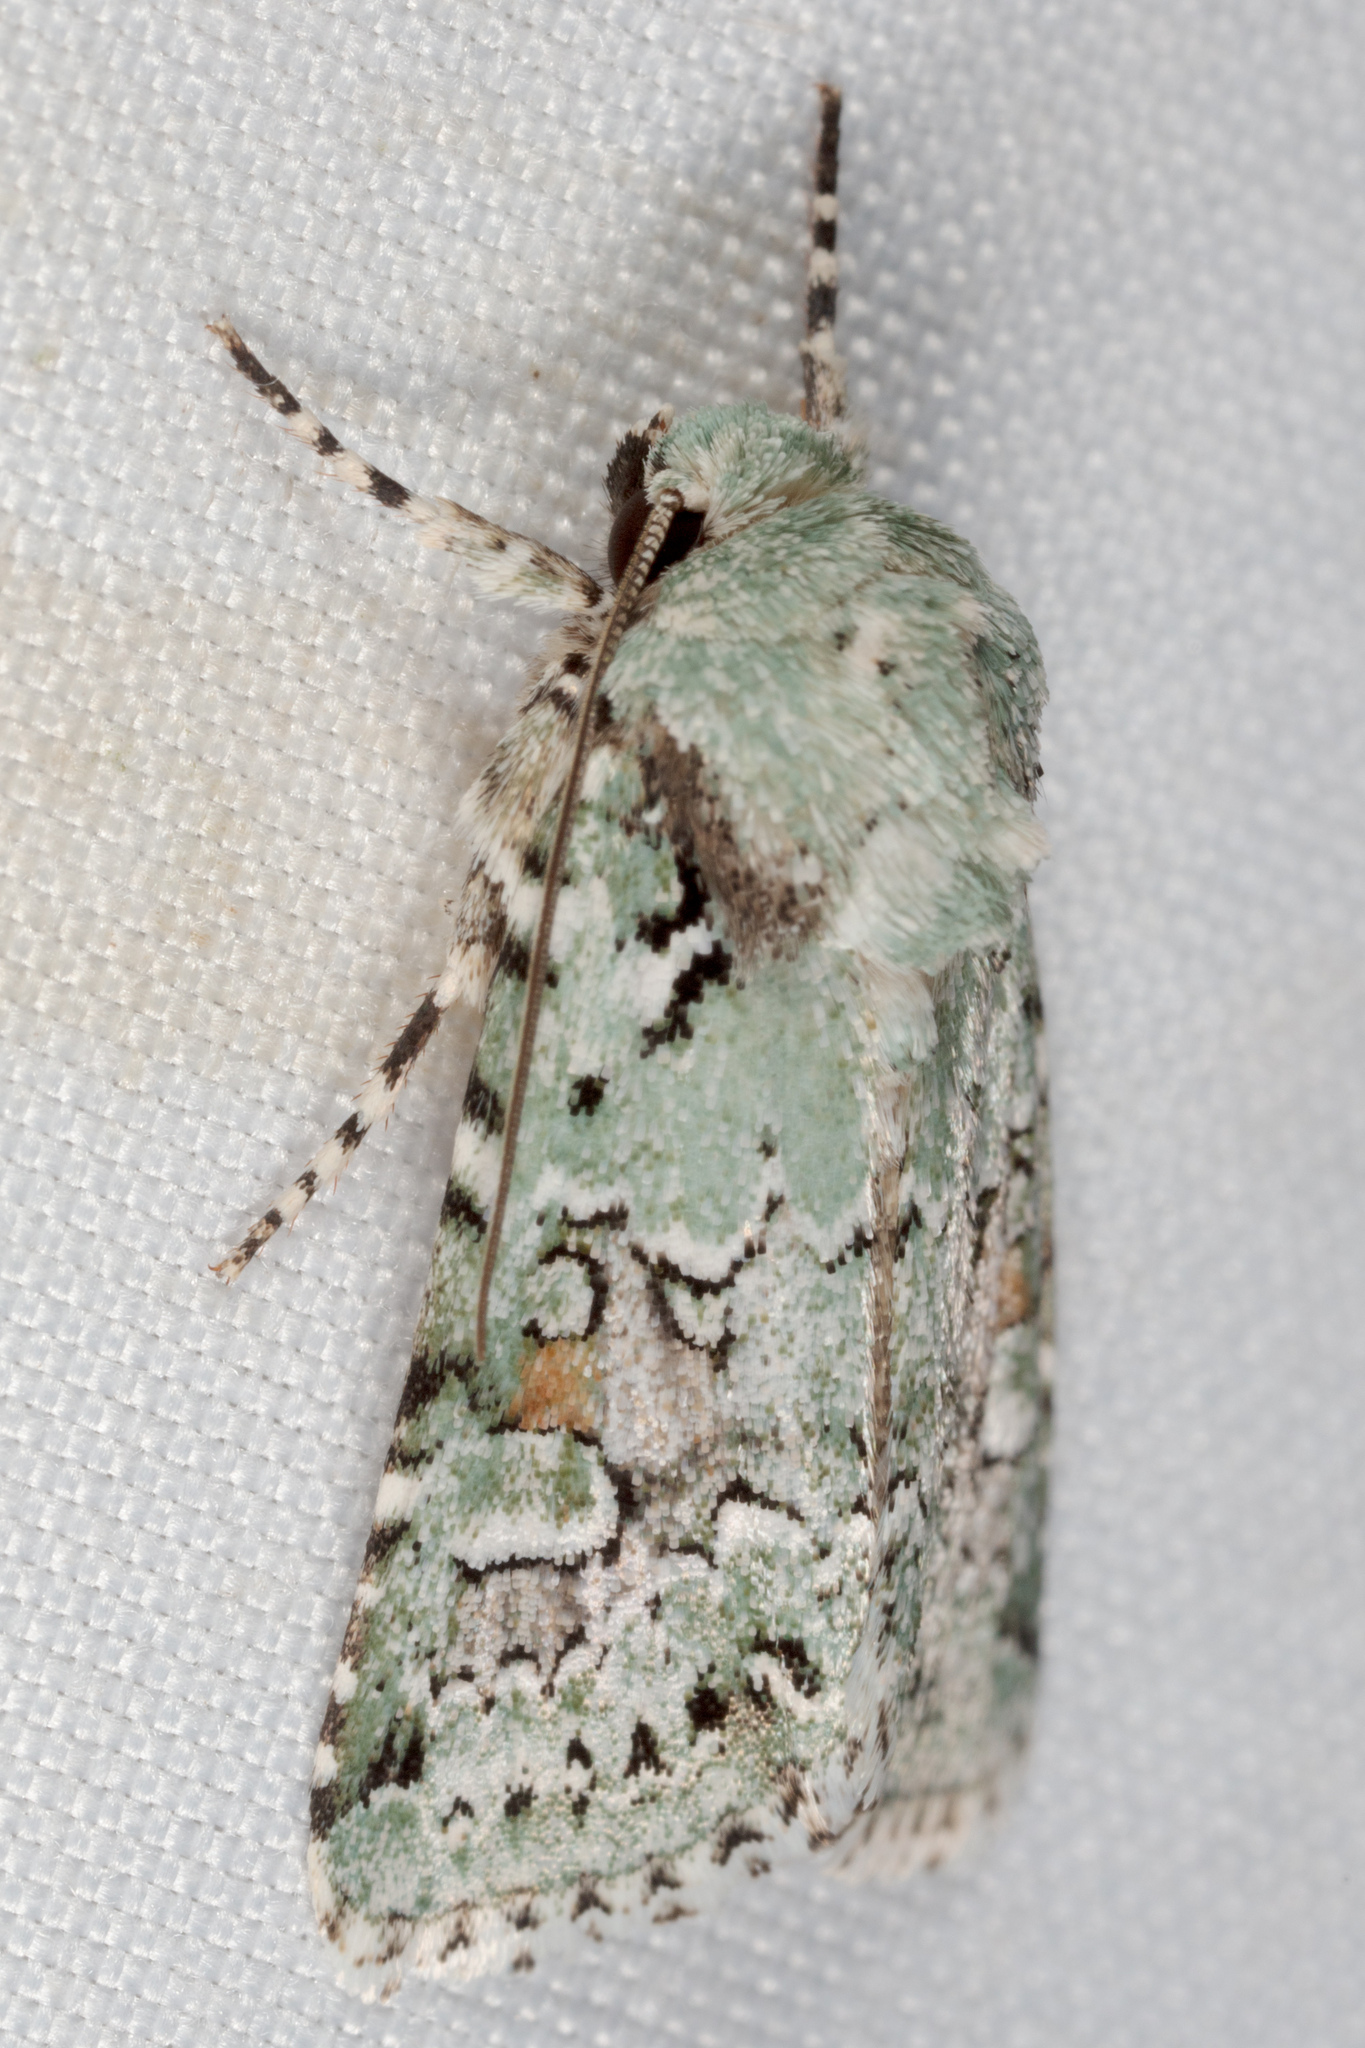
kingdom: Animalia
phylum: Arthropoda
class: Insecta
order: Lepidoptera
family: Noctuidae
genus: Lacinipolia
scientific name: Lacinipolia laudabilis
